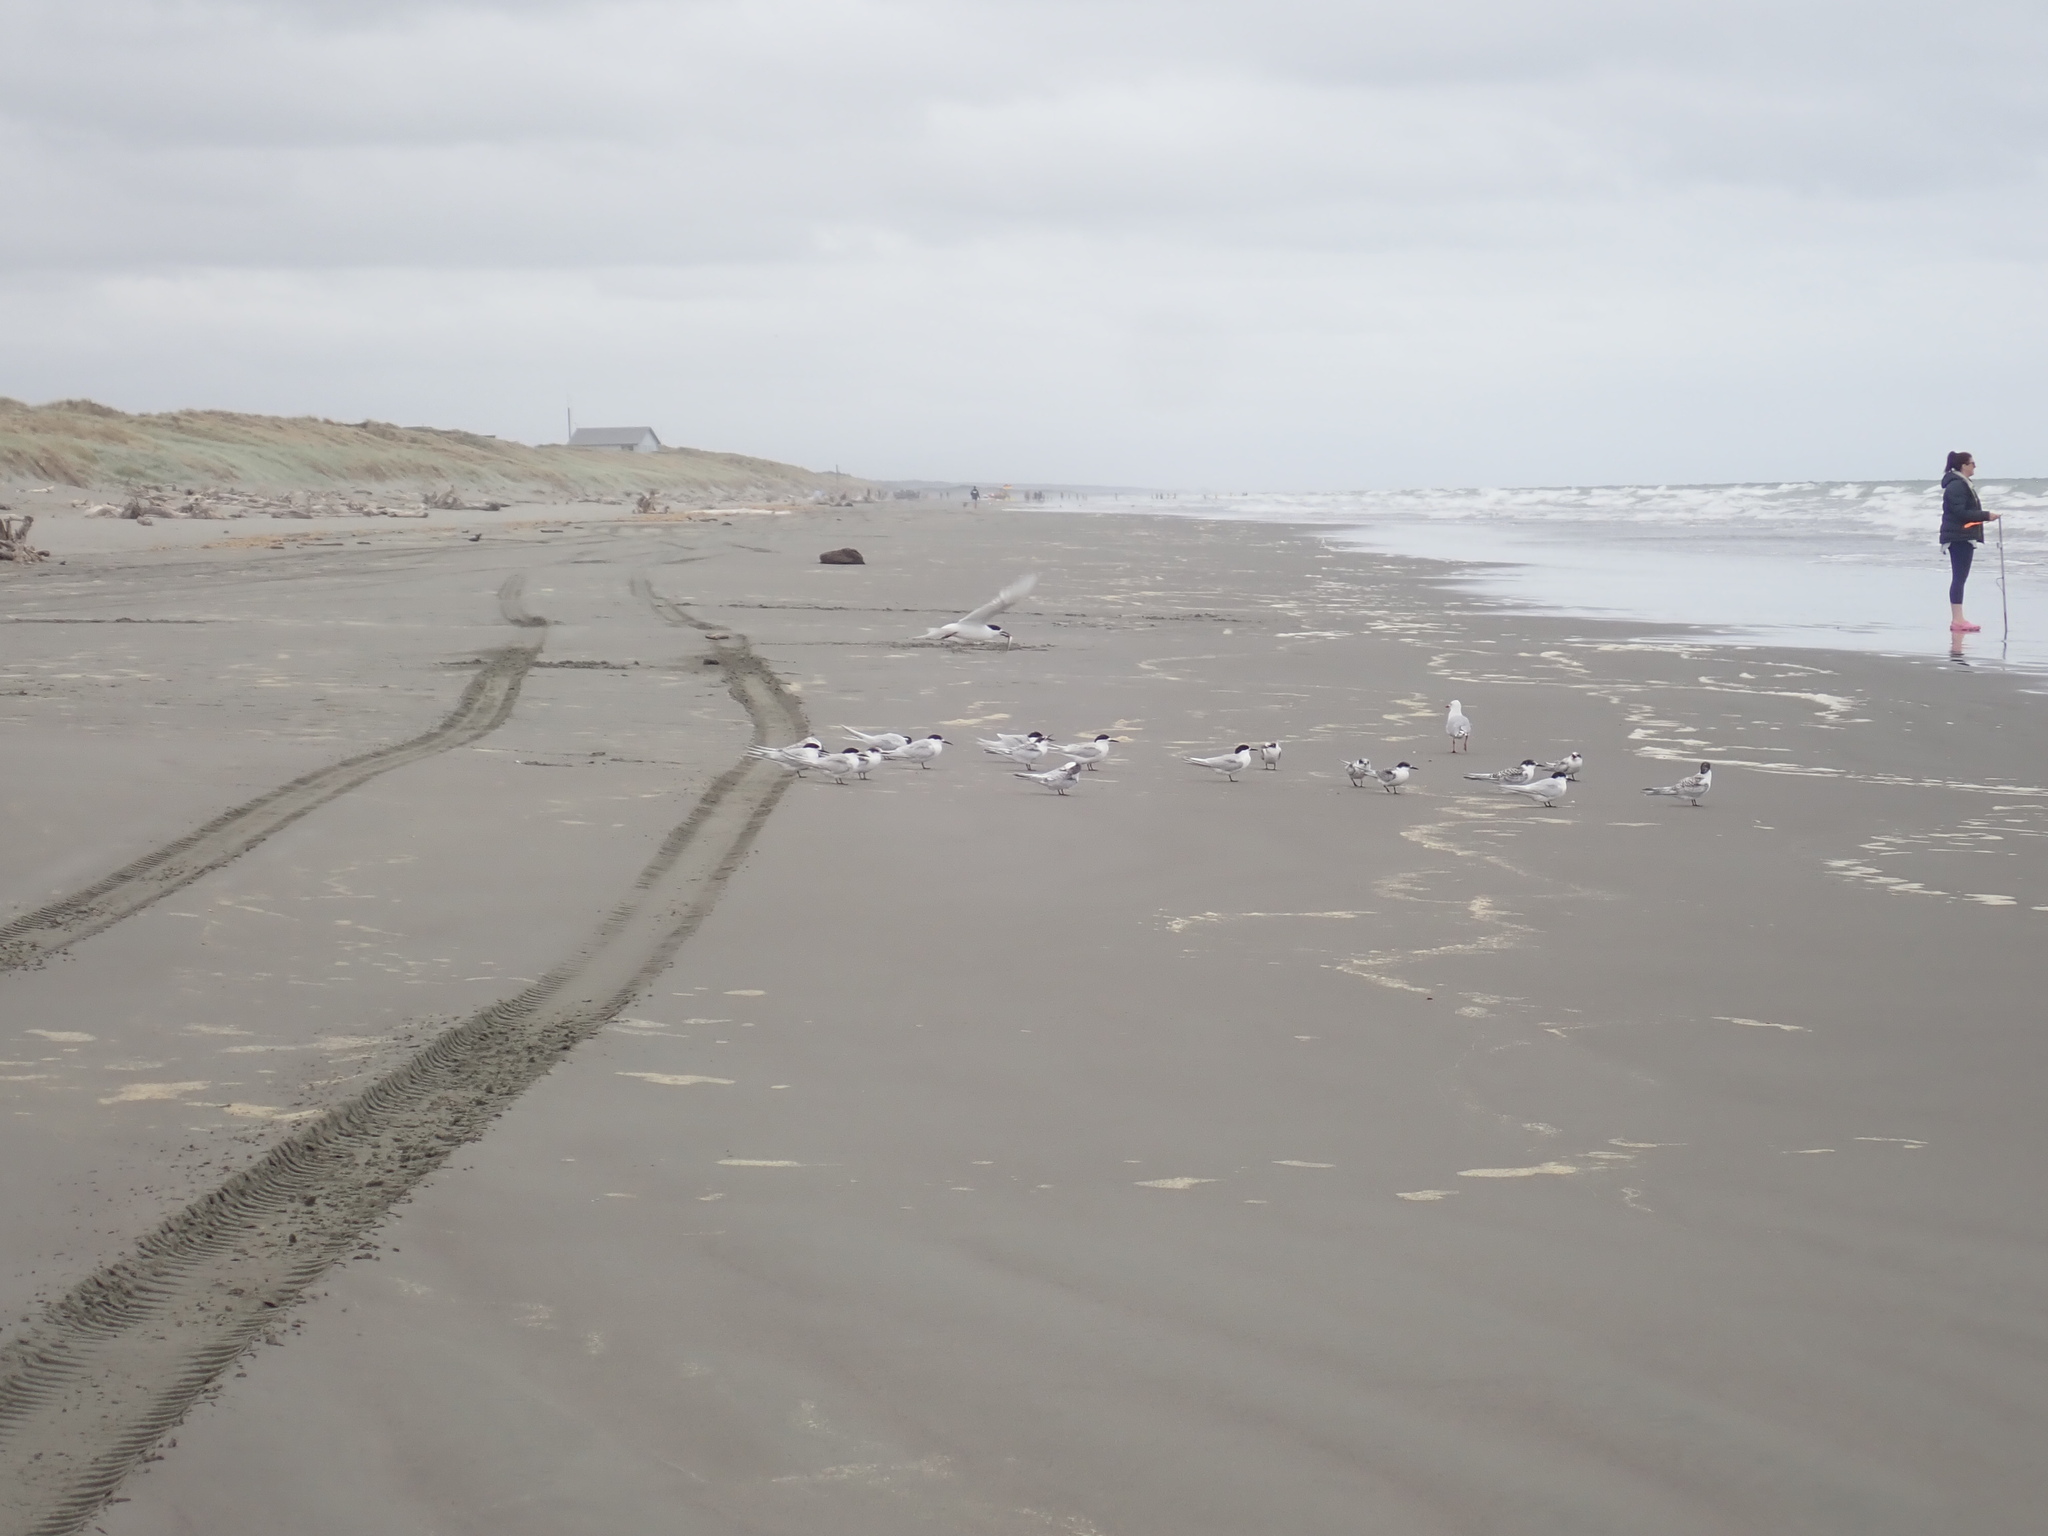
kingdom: Animalia
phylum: Chordata
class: Aves
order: Charadriiformes
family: Laridae
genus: Sterna
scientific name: Sterna striata
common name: White-fronted tern
